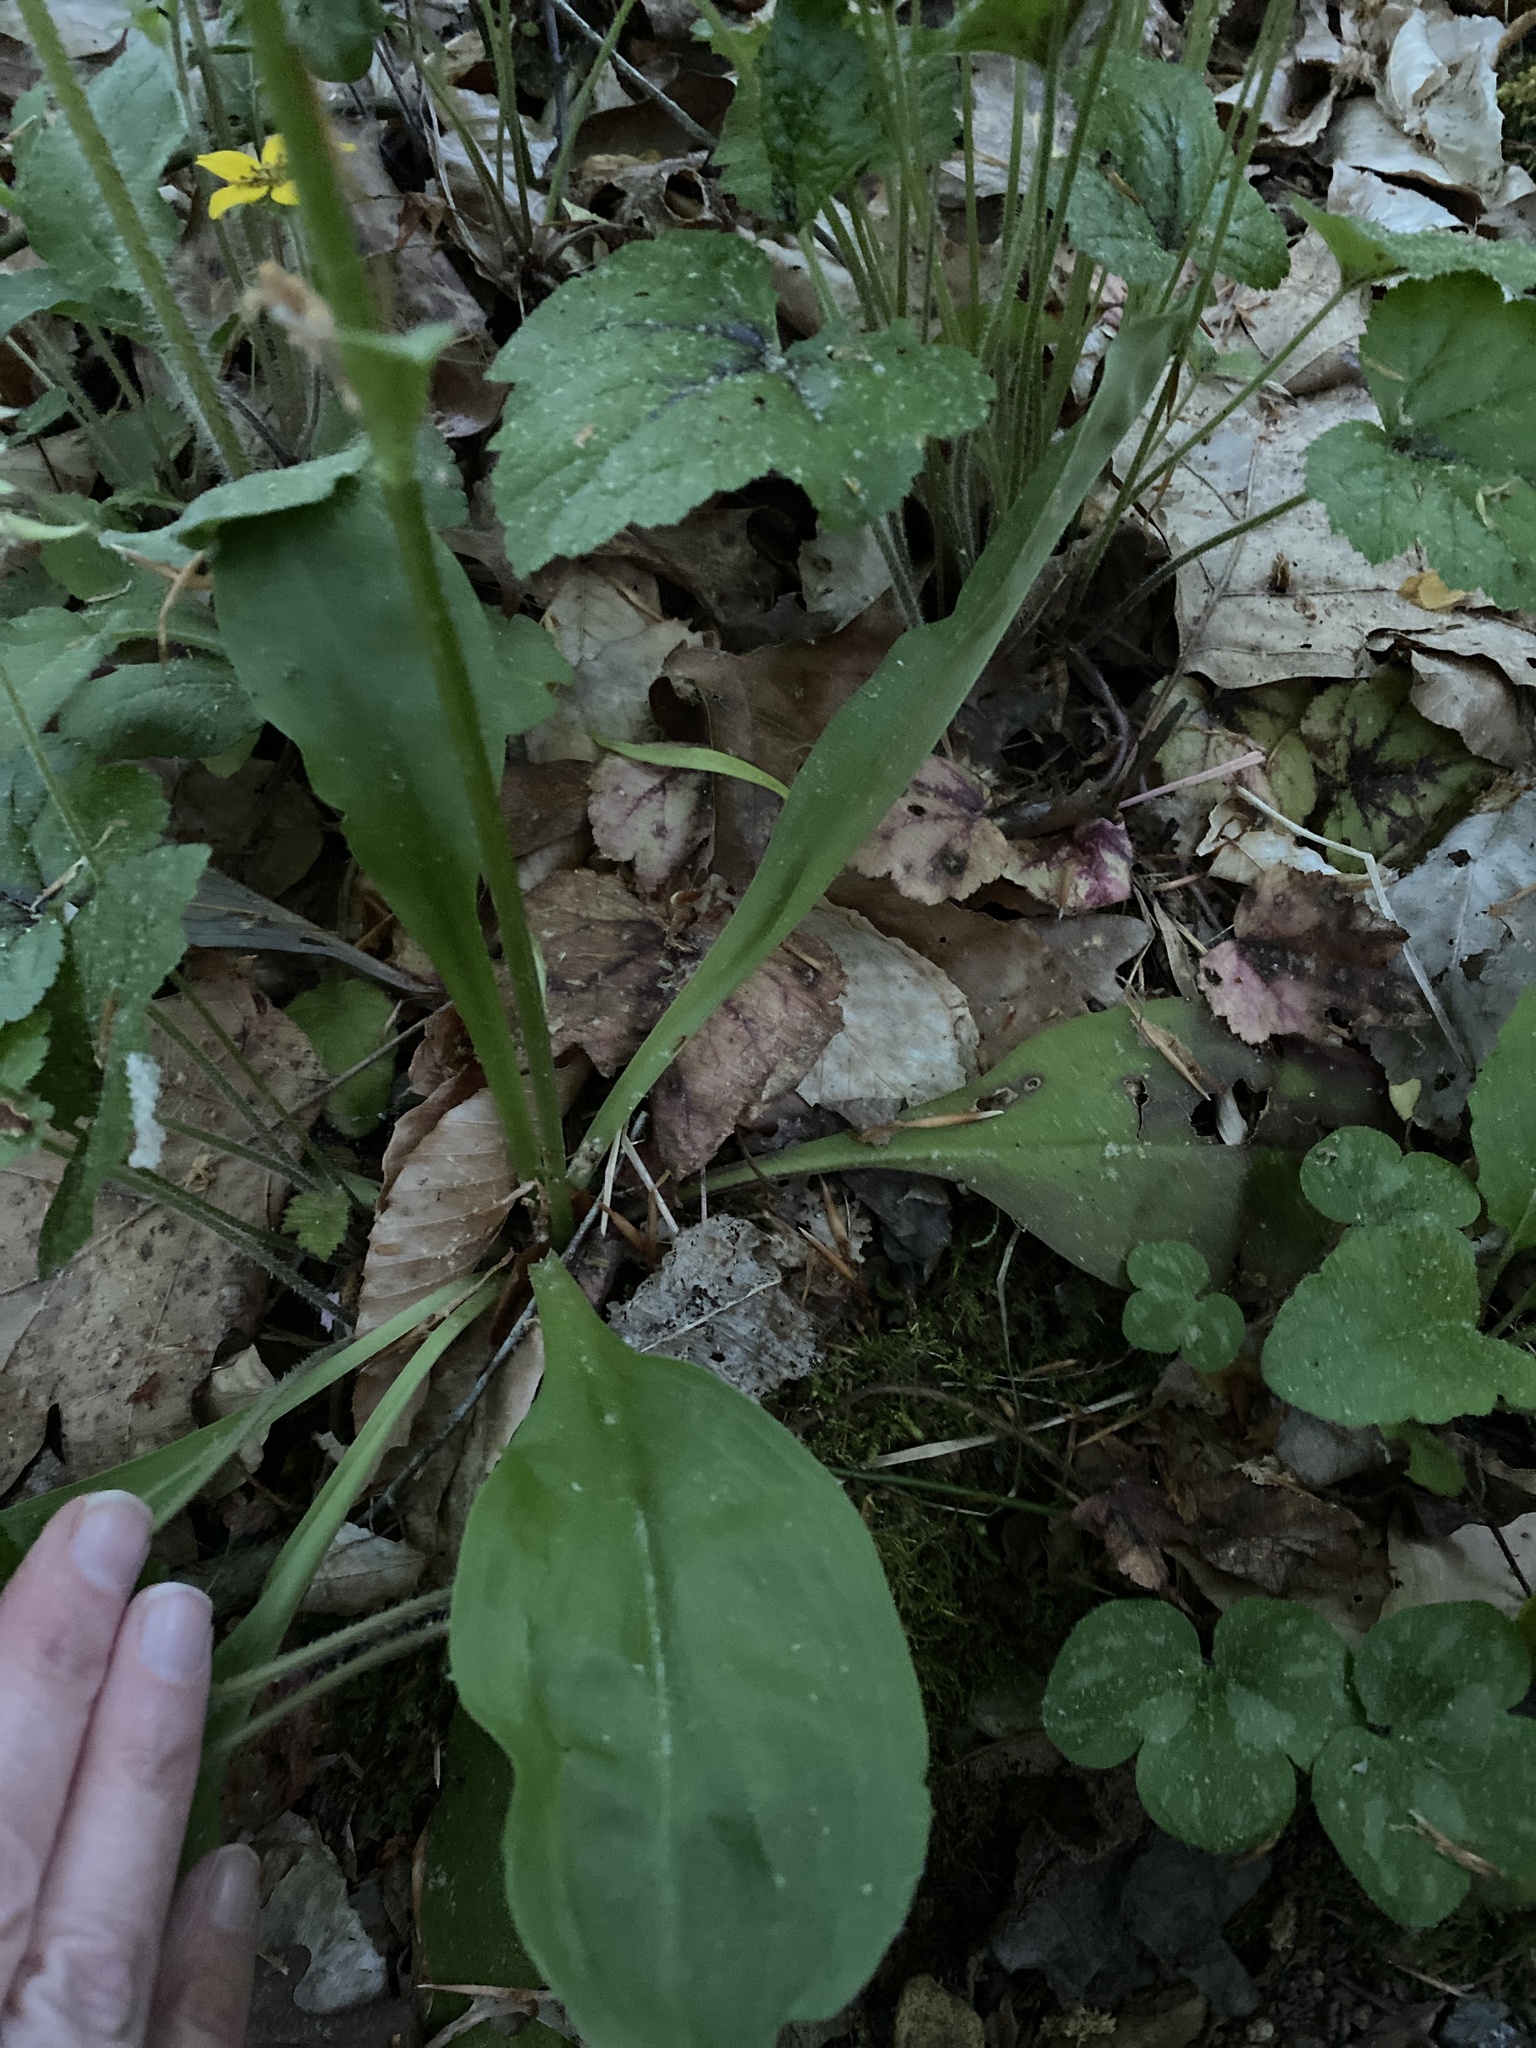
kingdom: Plantae
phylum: Tracheophyta
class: Liliopsida
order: Liliales
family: Melanthiaceae
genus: Chamaelirium
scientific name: Chamaelirium luteum
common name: Fairy-wand
